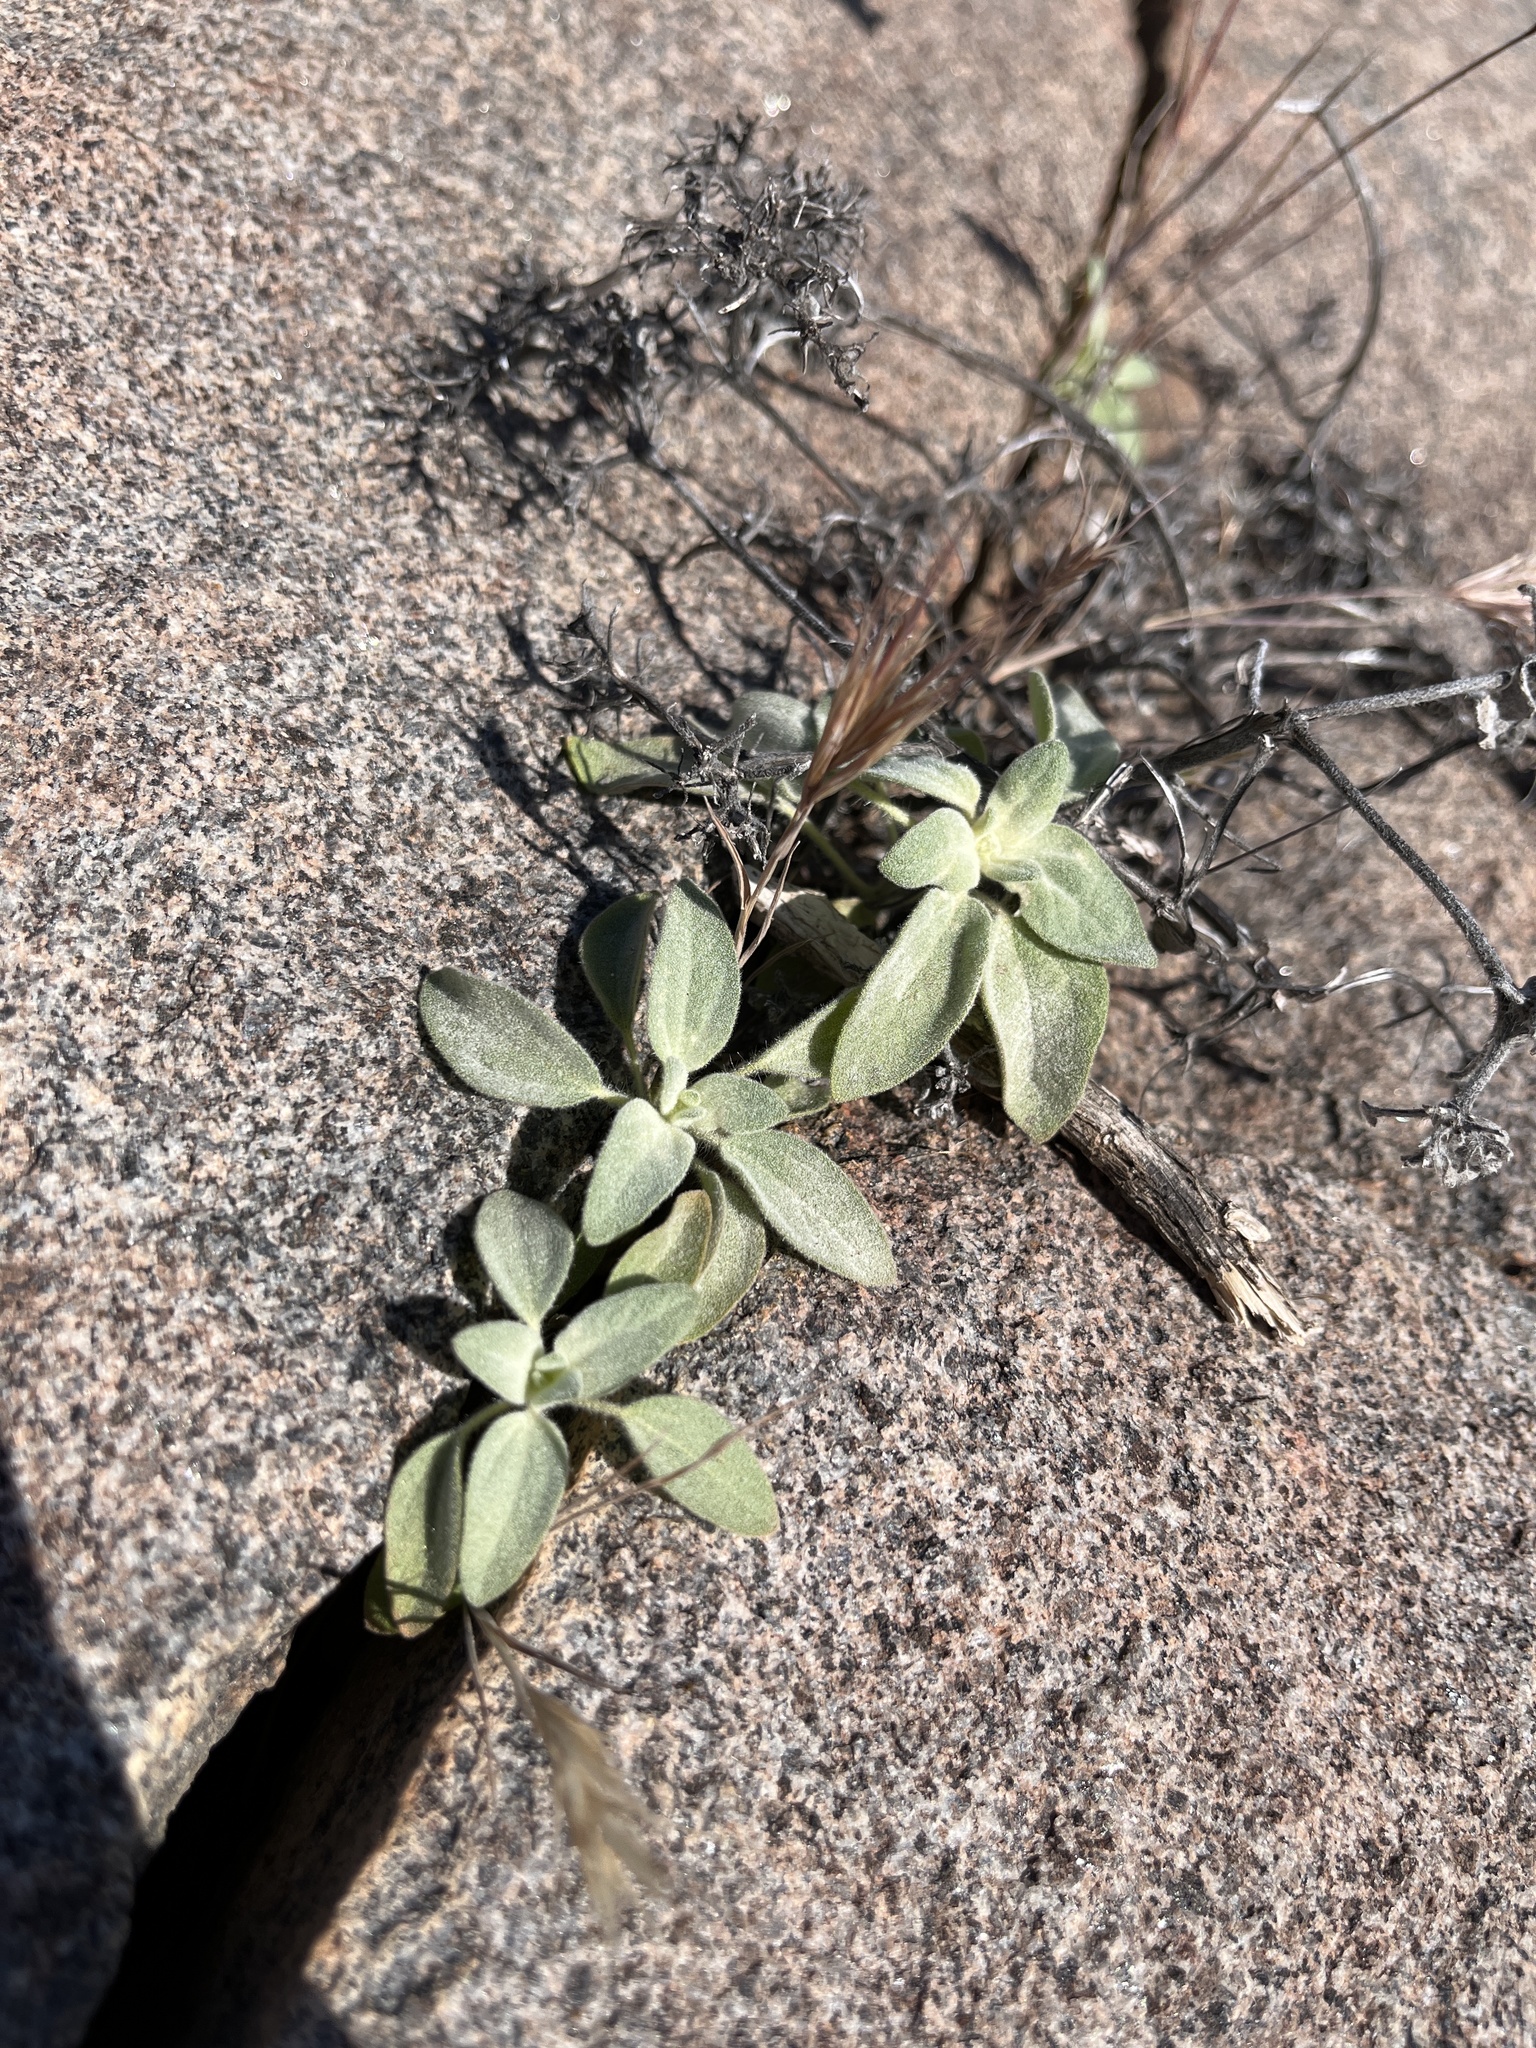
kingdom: Plantae
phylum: Tracheophyta
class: Magnoliopsida
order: Malpighiales
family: Euphorbiaceae
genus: Croton
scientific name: Croton setiger
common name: Dove weed
